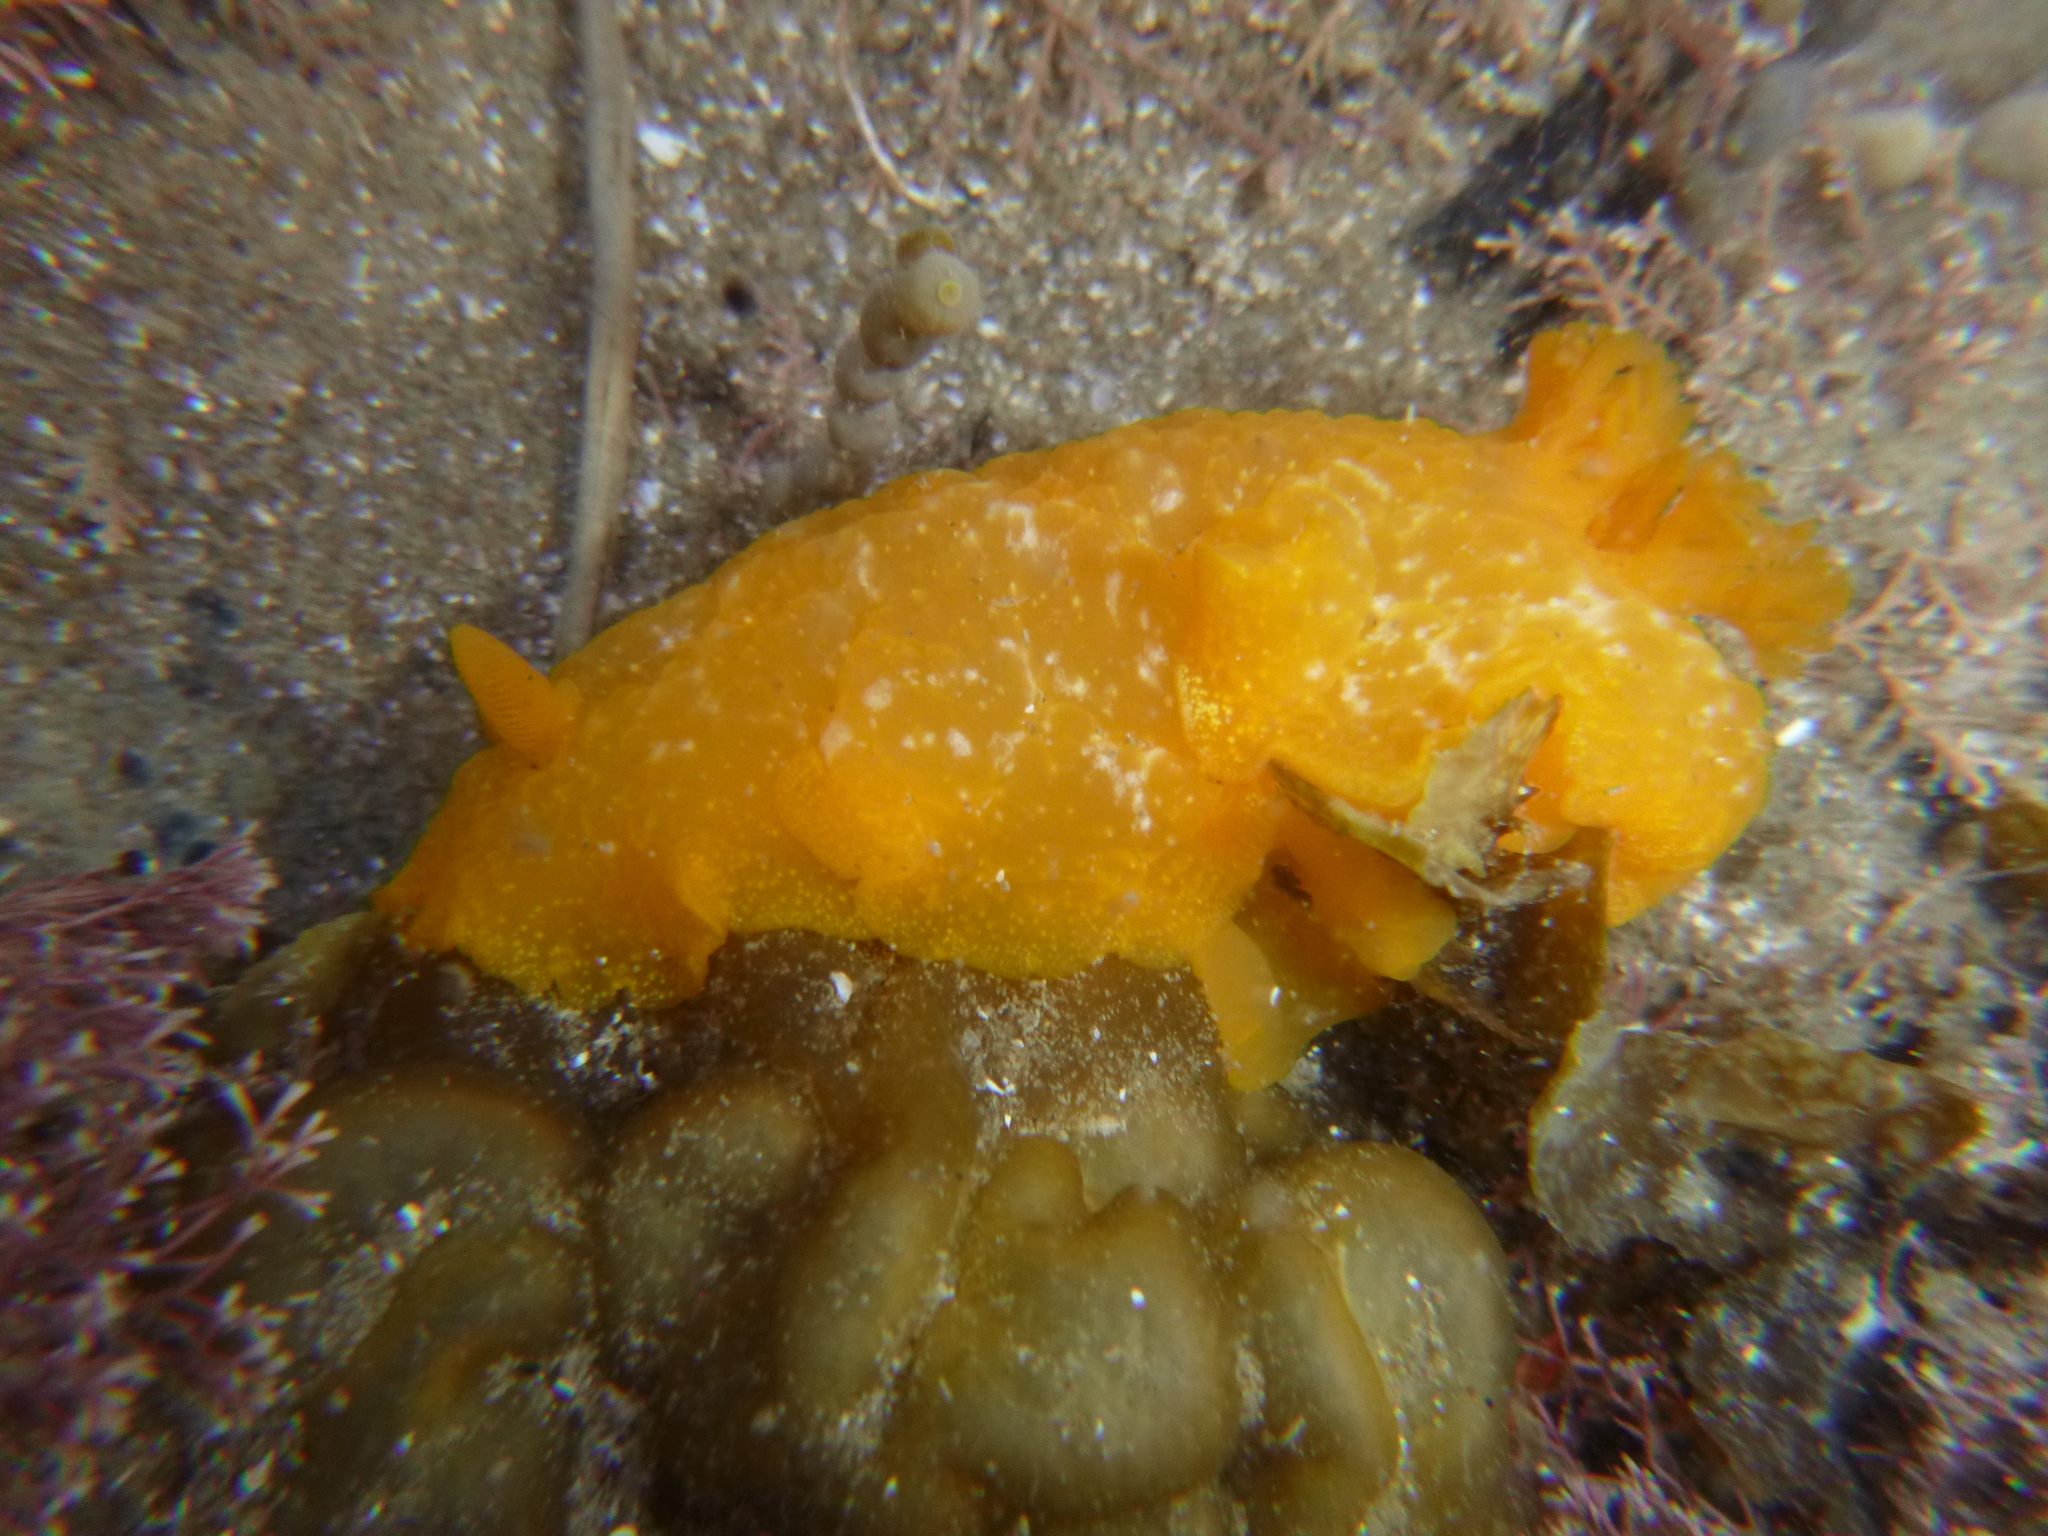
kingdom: Animalia
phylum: Mollusca
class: Gastropoda
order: Nudibranchia
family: Dendrodorididae
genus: Dendrodoris
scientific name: Dendrodoris citrina
